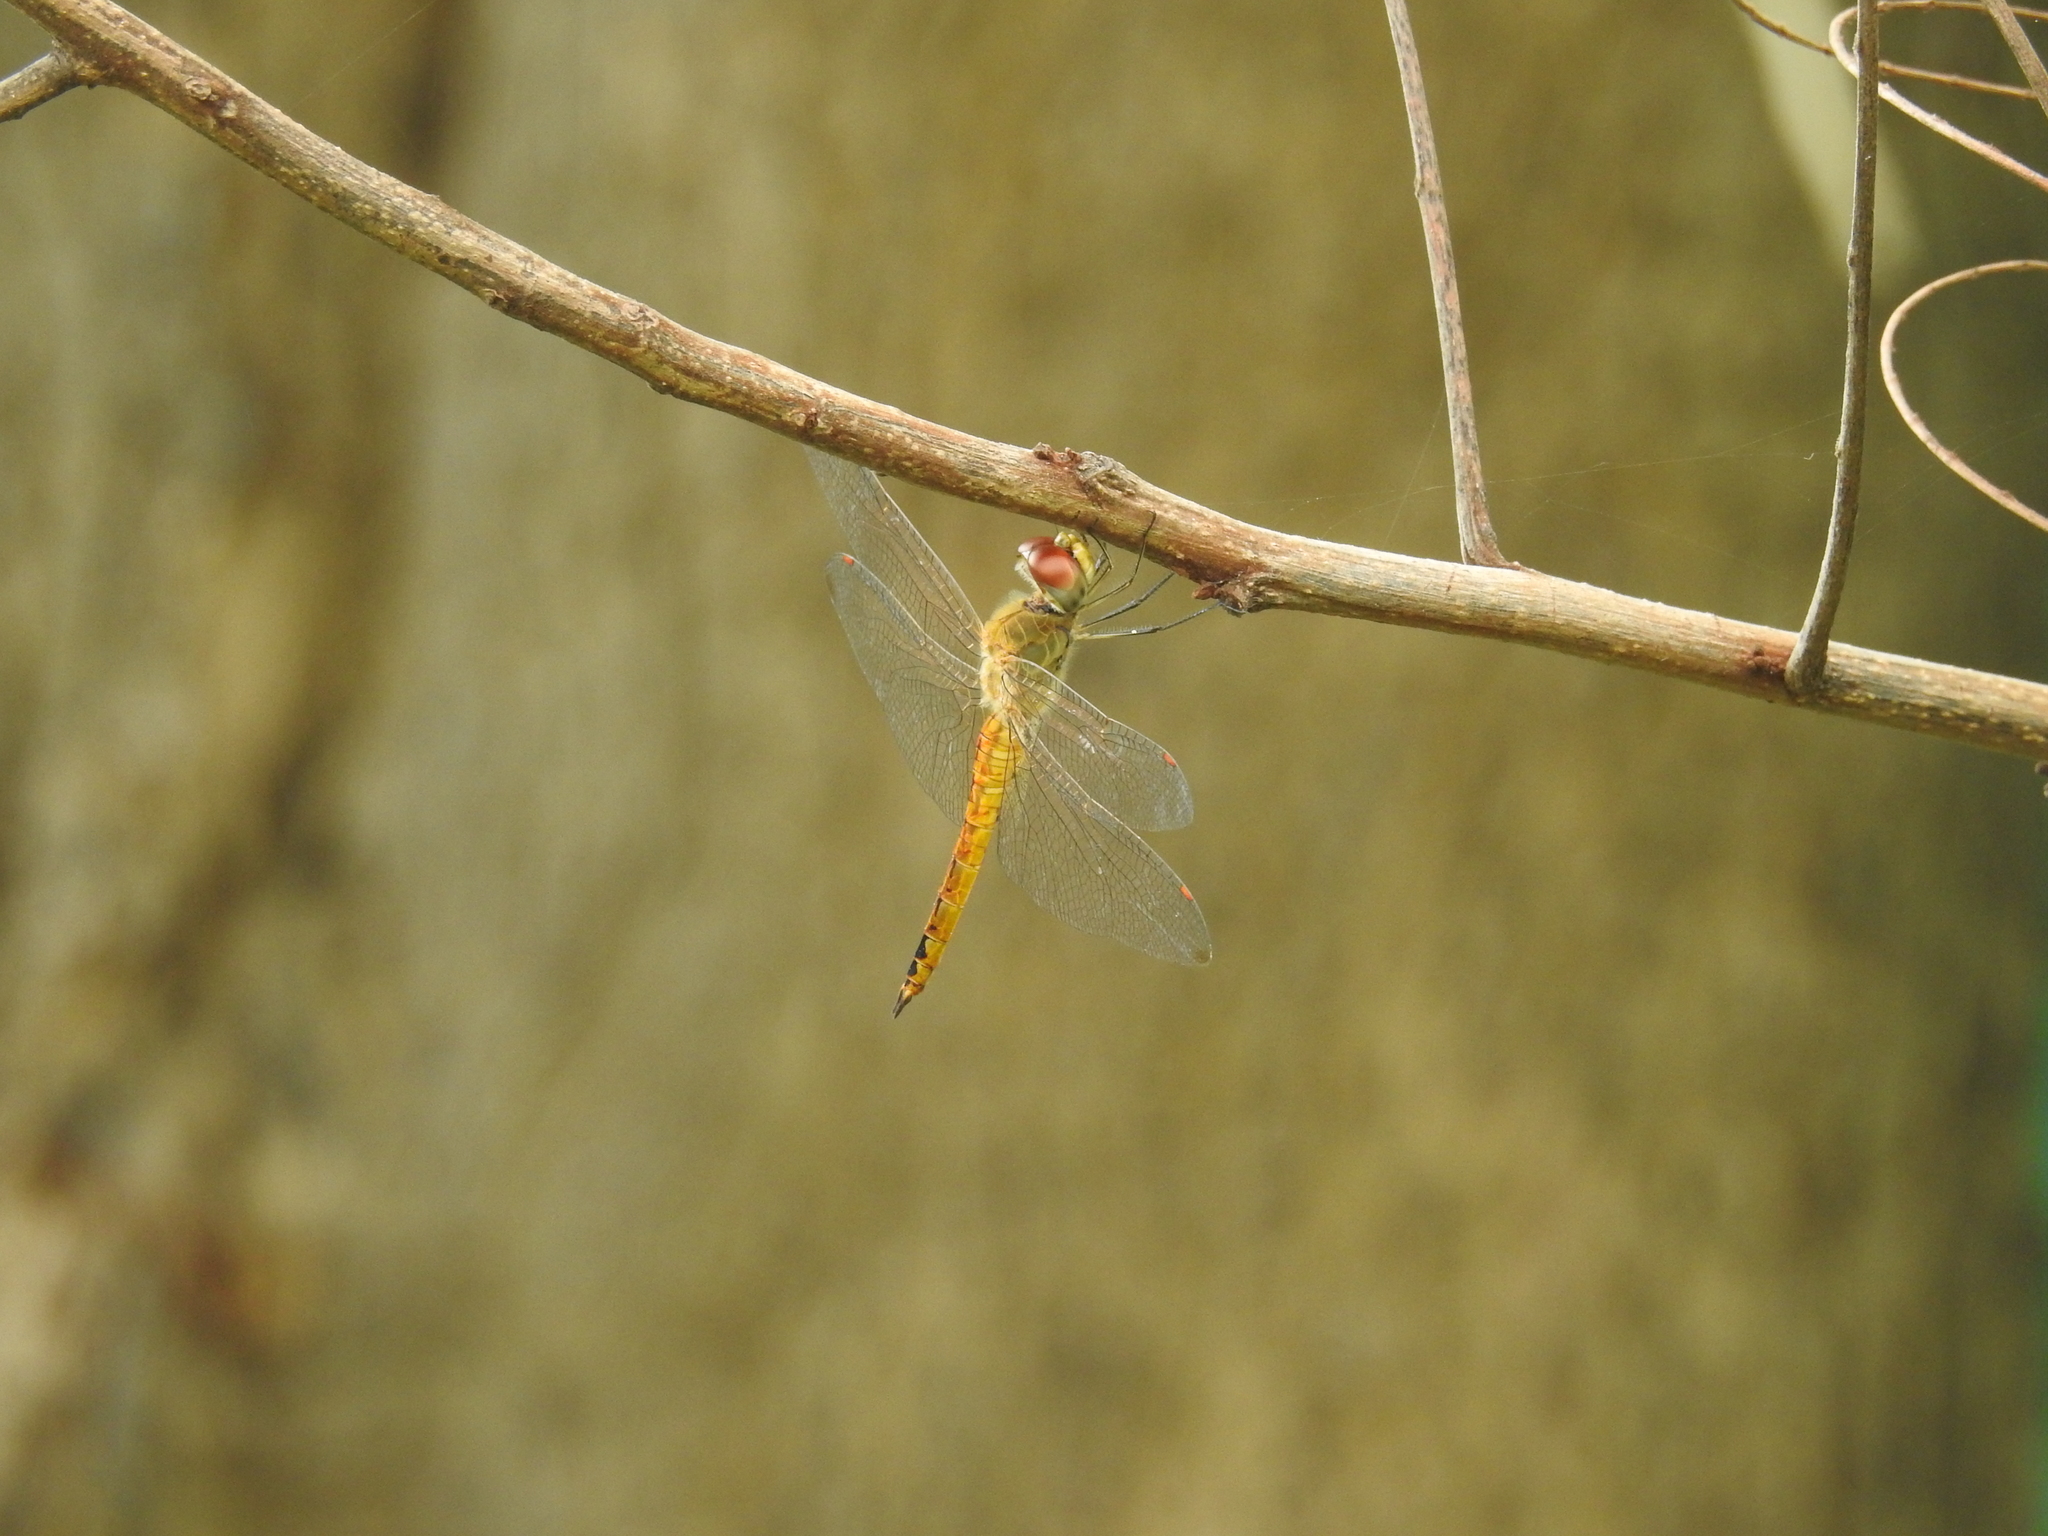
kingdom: Animalia
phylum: Arthropoda
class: Insecta
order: Odonata
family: Libellulidae
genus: Pantala
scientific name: Pantala flavescens
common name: Wandering glider
